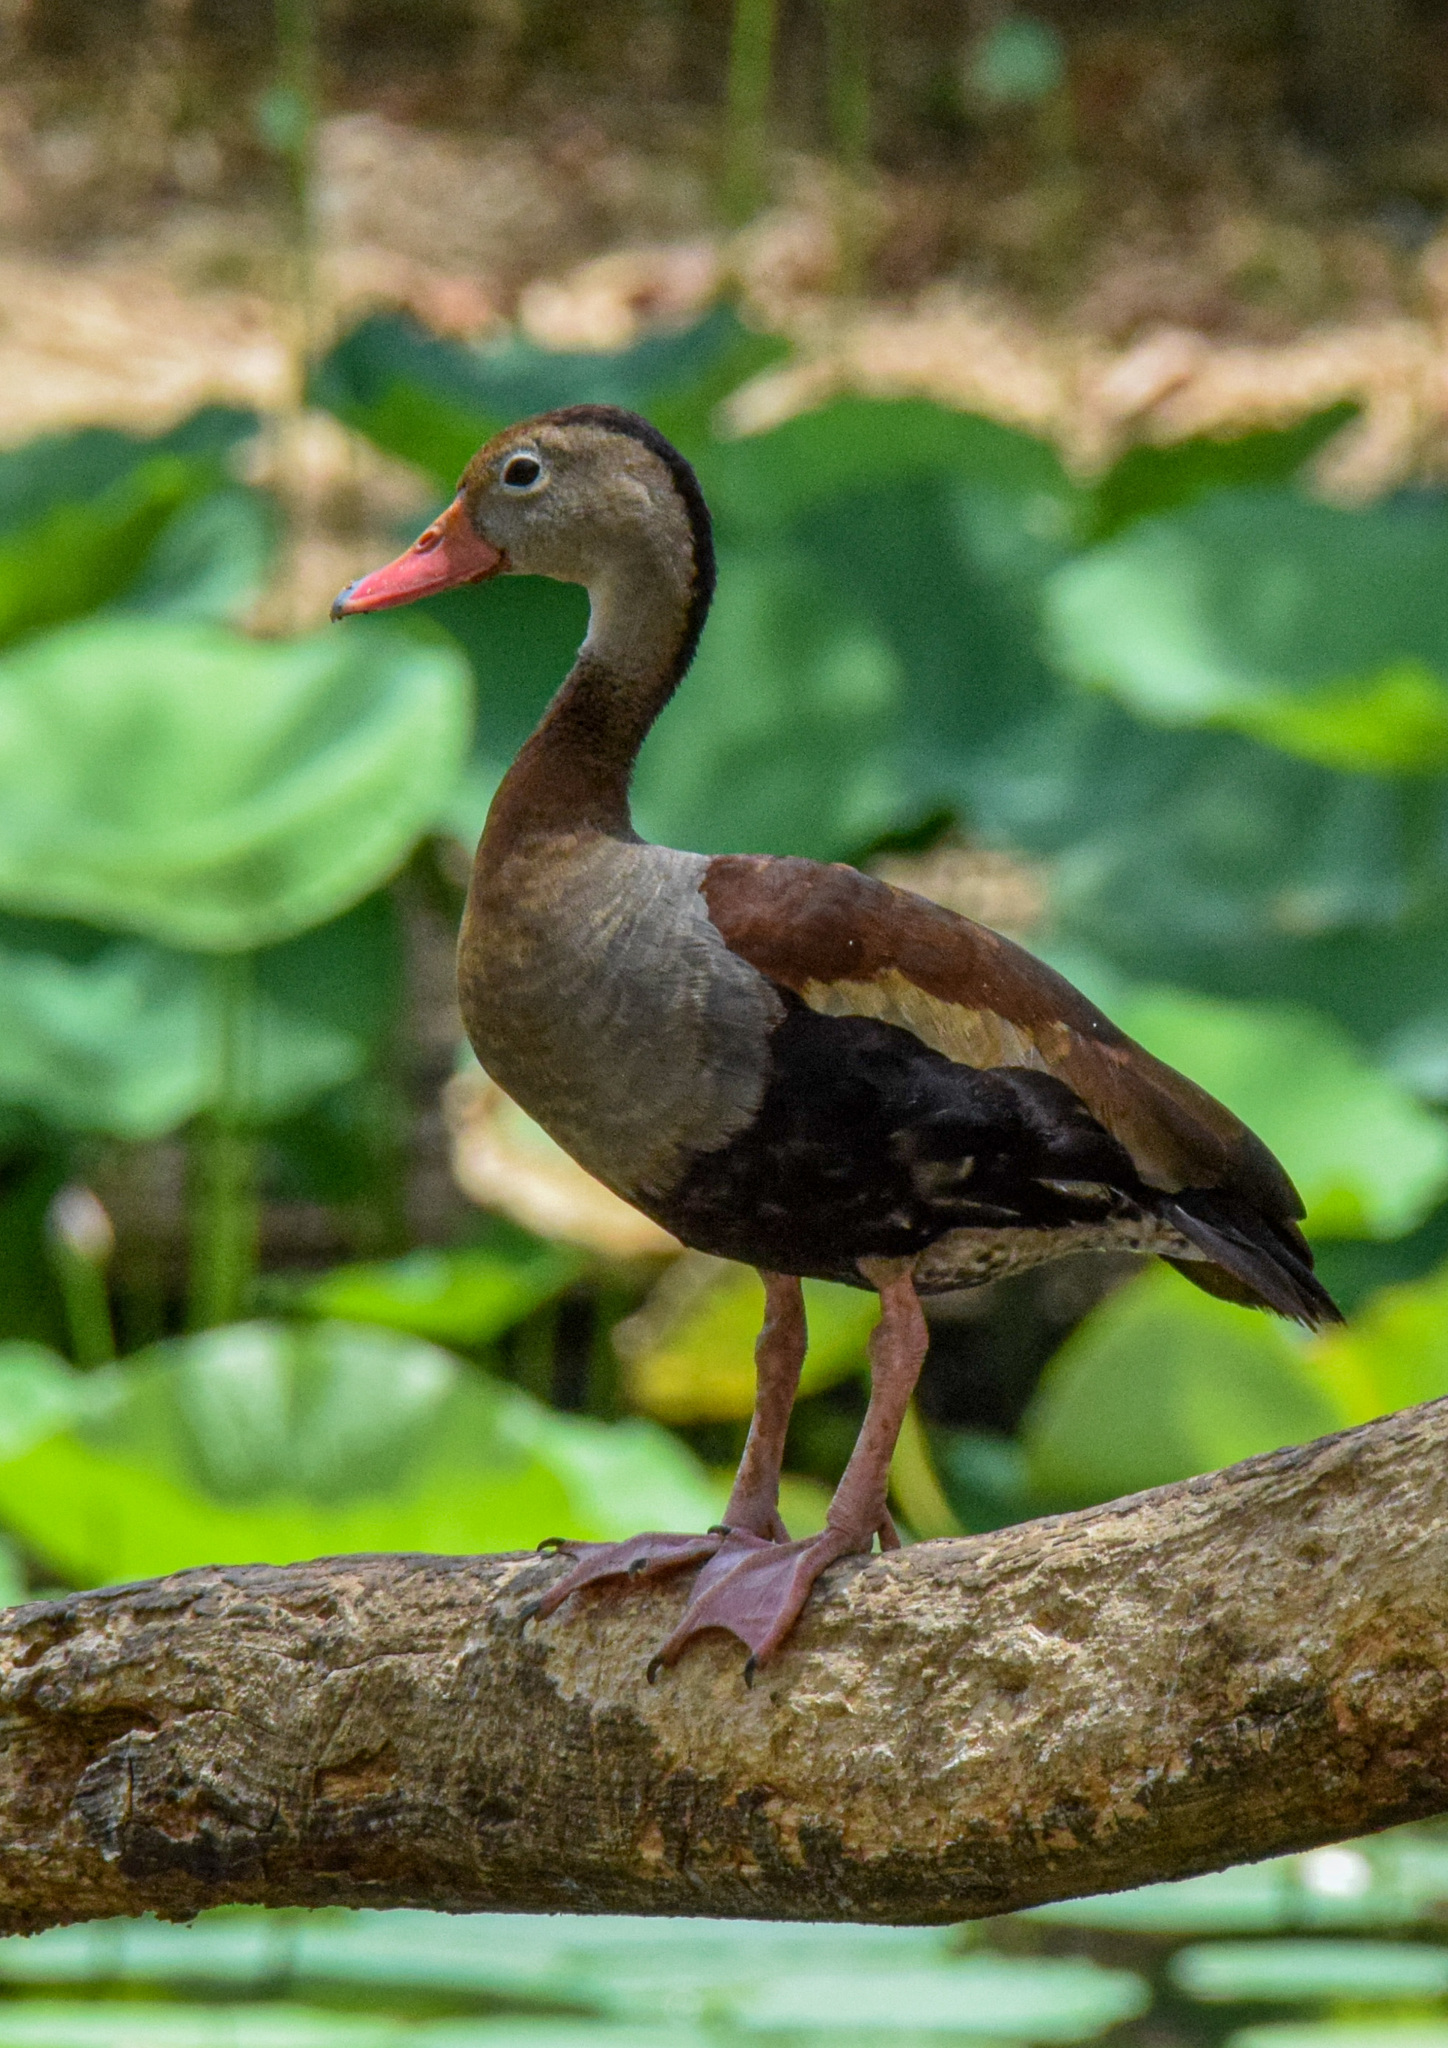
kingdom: Animalia
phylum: Chordata
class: Aves
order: Anseriformes
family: Anatidae
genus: Dendrocygna
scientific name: Dendrocygna autumnalis
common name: Black-bellied whistling duck
